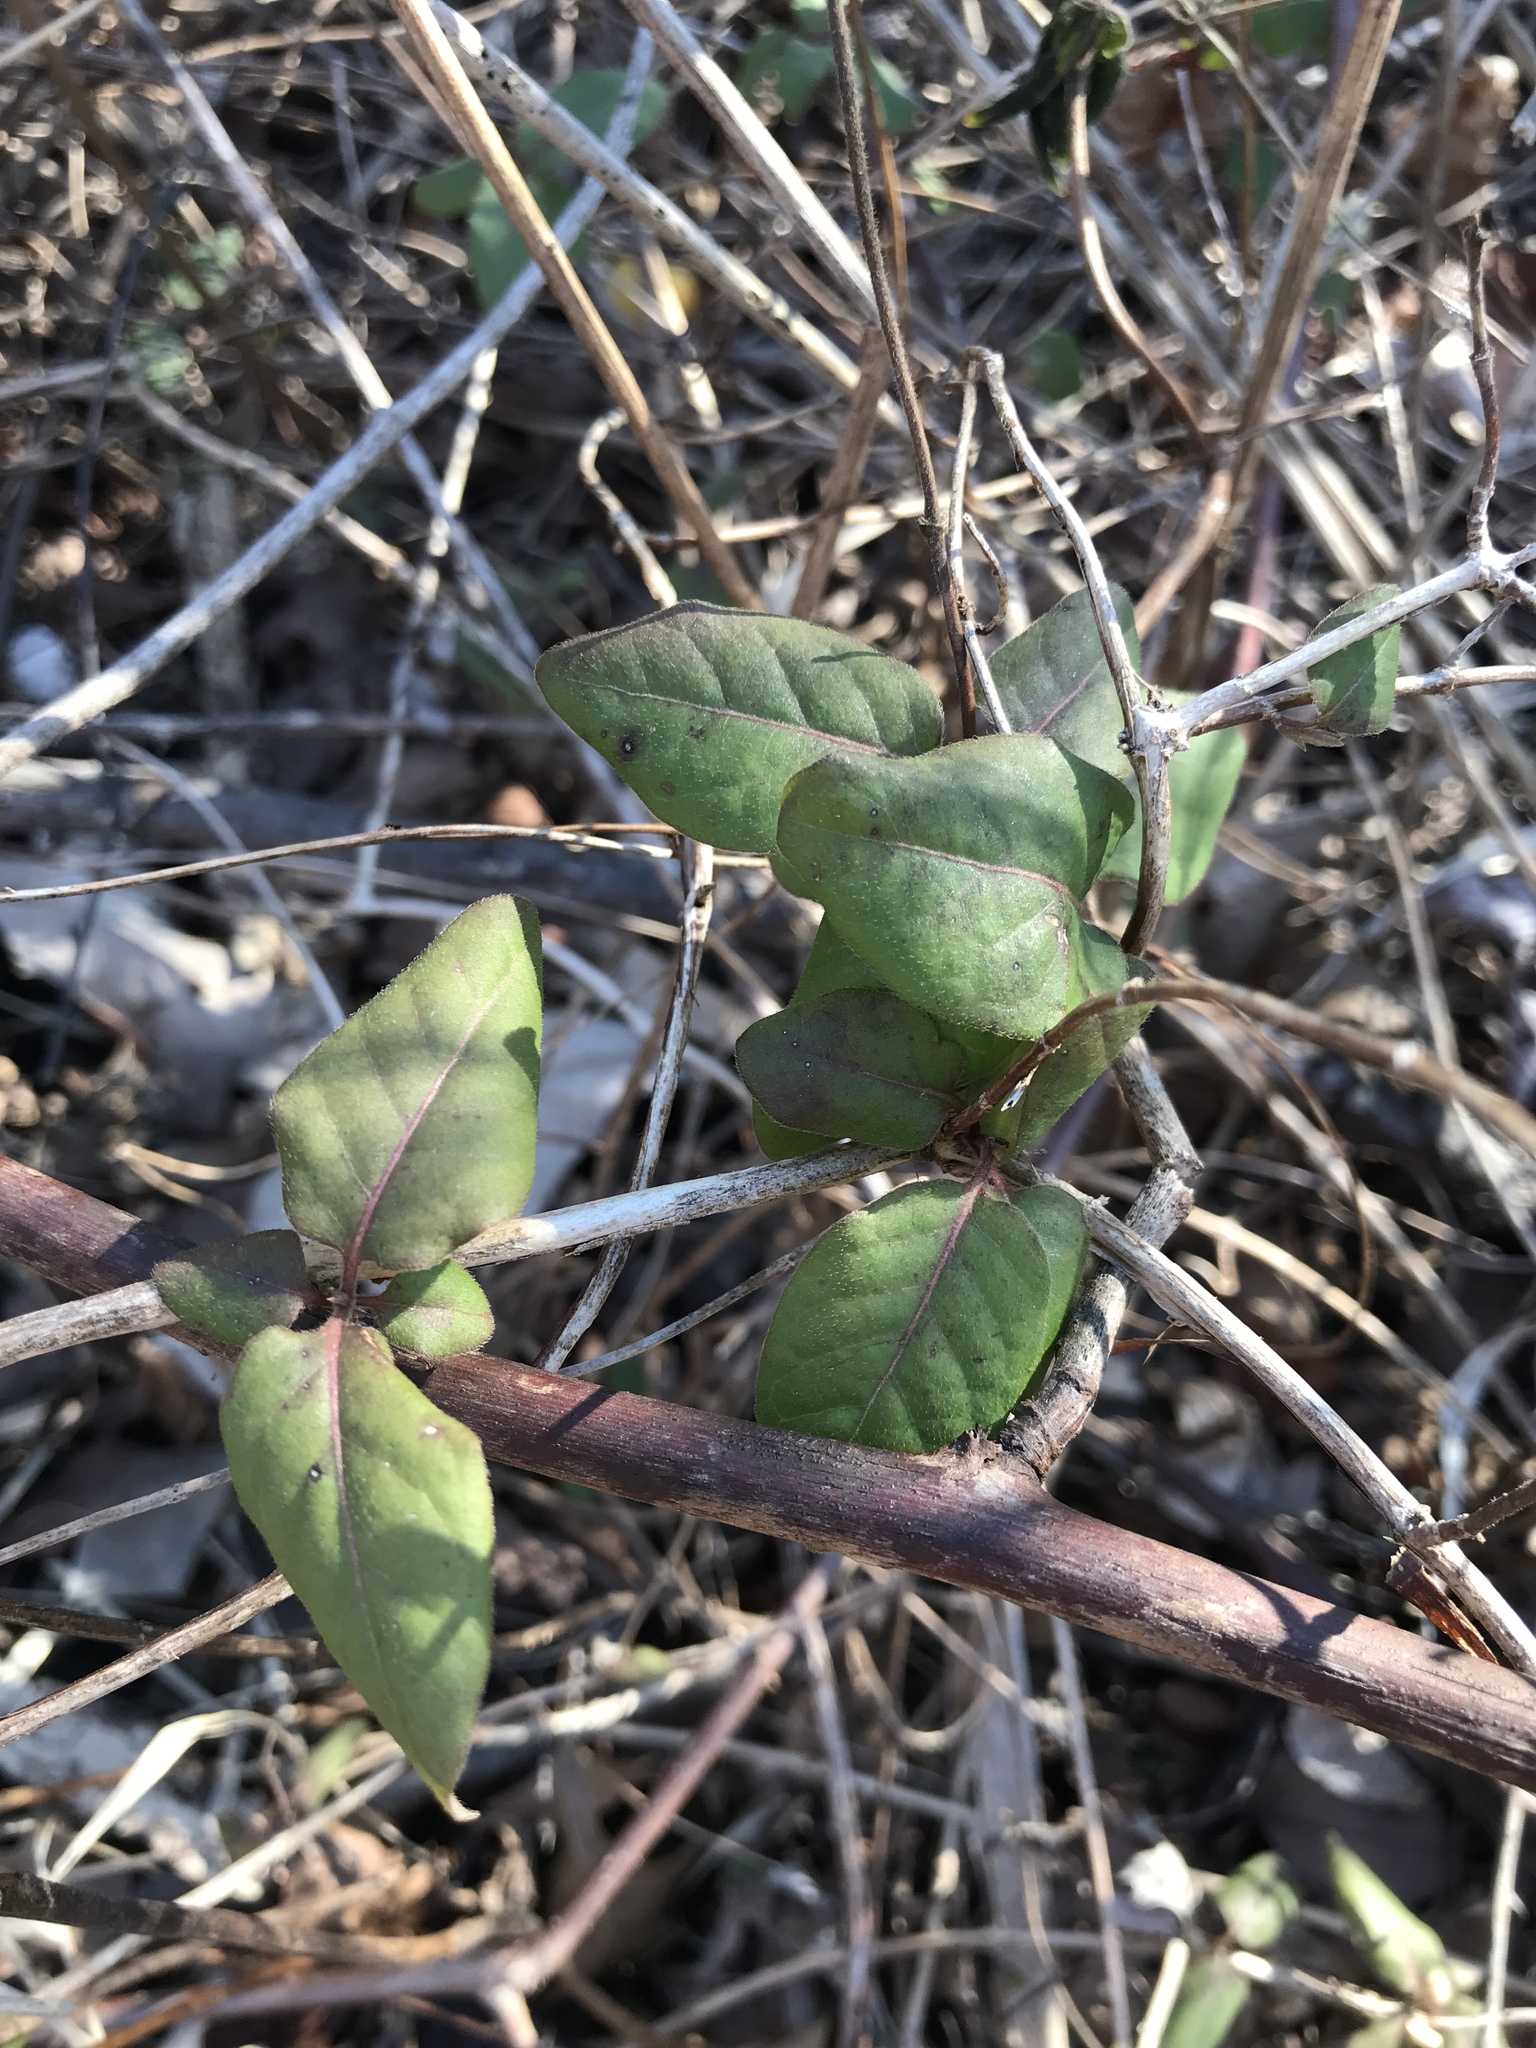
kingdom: Plantae
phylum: Tracheophyta
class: Magnoliopsida
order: Dipsacales
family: Caprifoliaceae
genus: Lonicera
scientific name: Lonicera japonica
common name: Japanese honeysuckle
